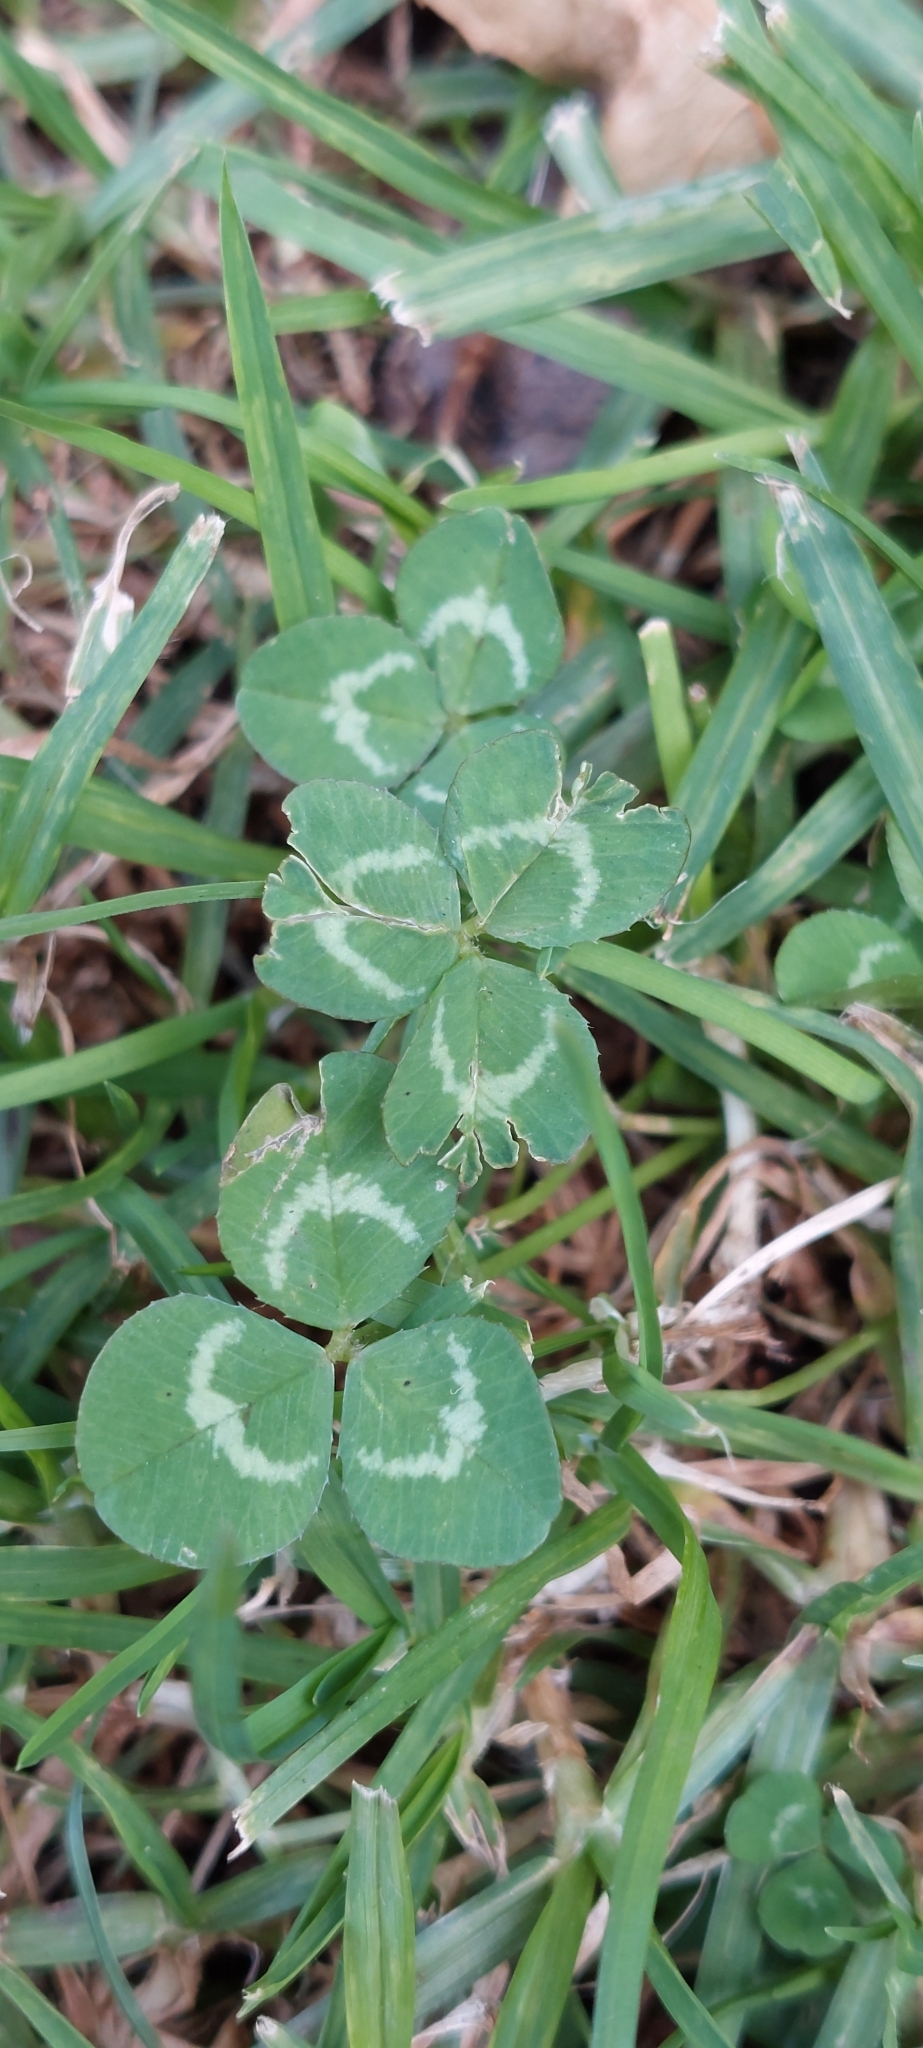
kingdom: Plantae
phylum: Tracheophyta
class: Magnoliopsida
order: Fabales
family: Fabaceae
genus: Trifolium
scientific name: Trifolium repens
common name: White clover
